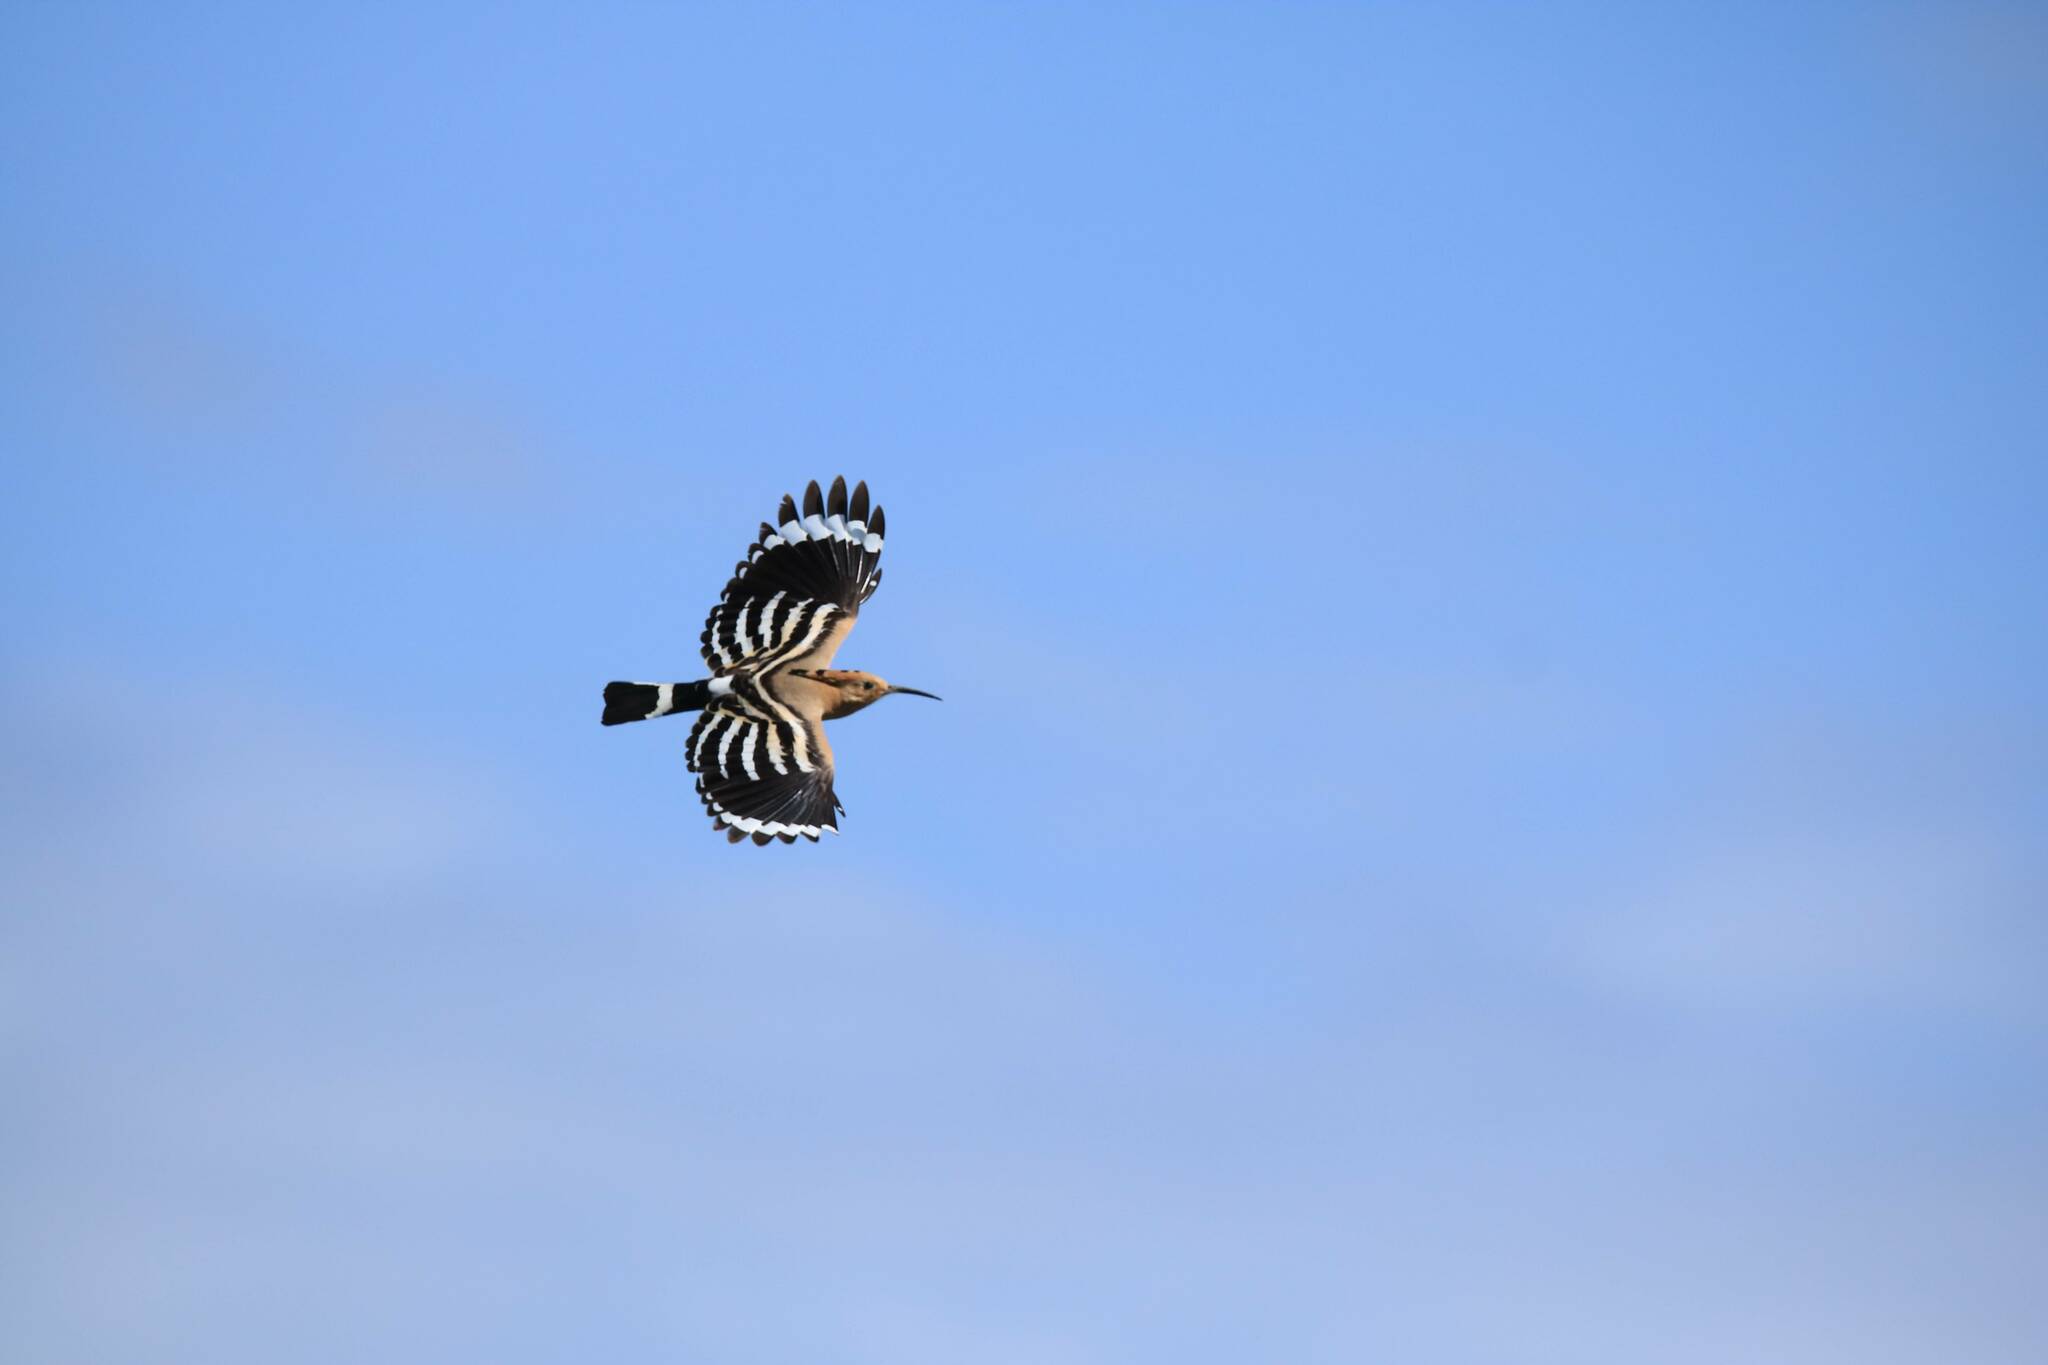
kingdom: Animalia
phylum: Chordata
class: Aves
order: Bucerotiformes
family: Upupidae
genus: Upupa
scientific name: Upupa epops
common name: Eurasian hoopoe
